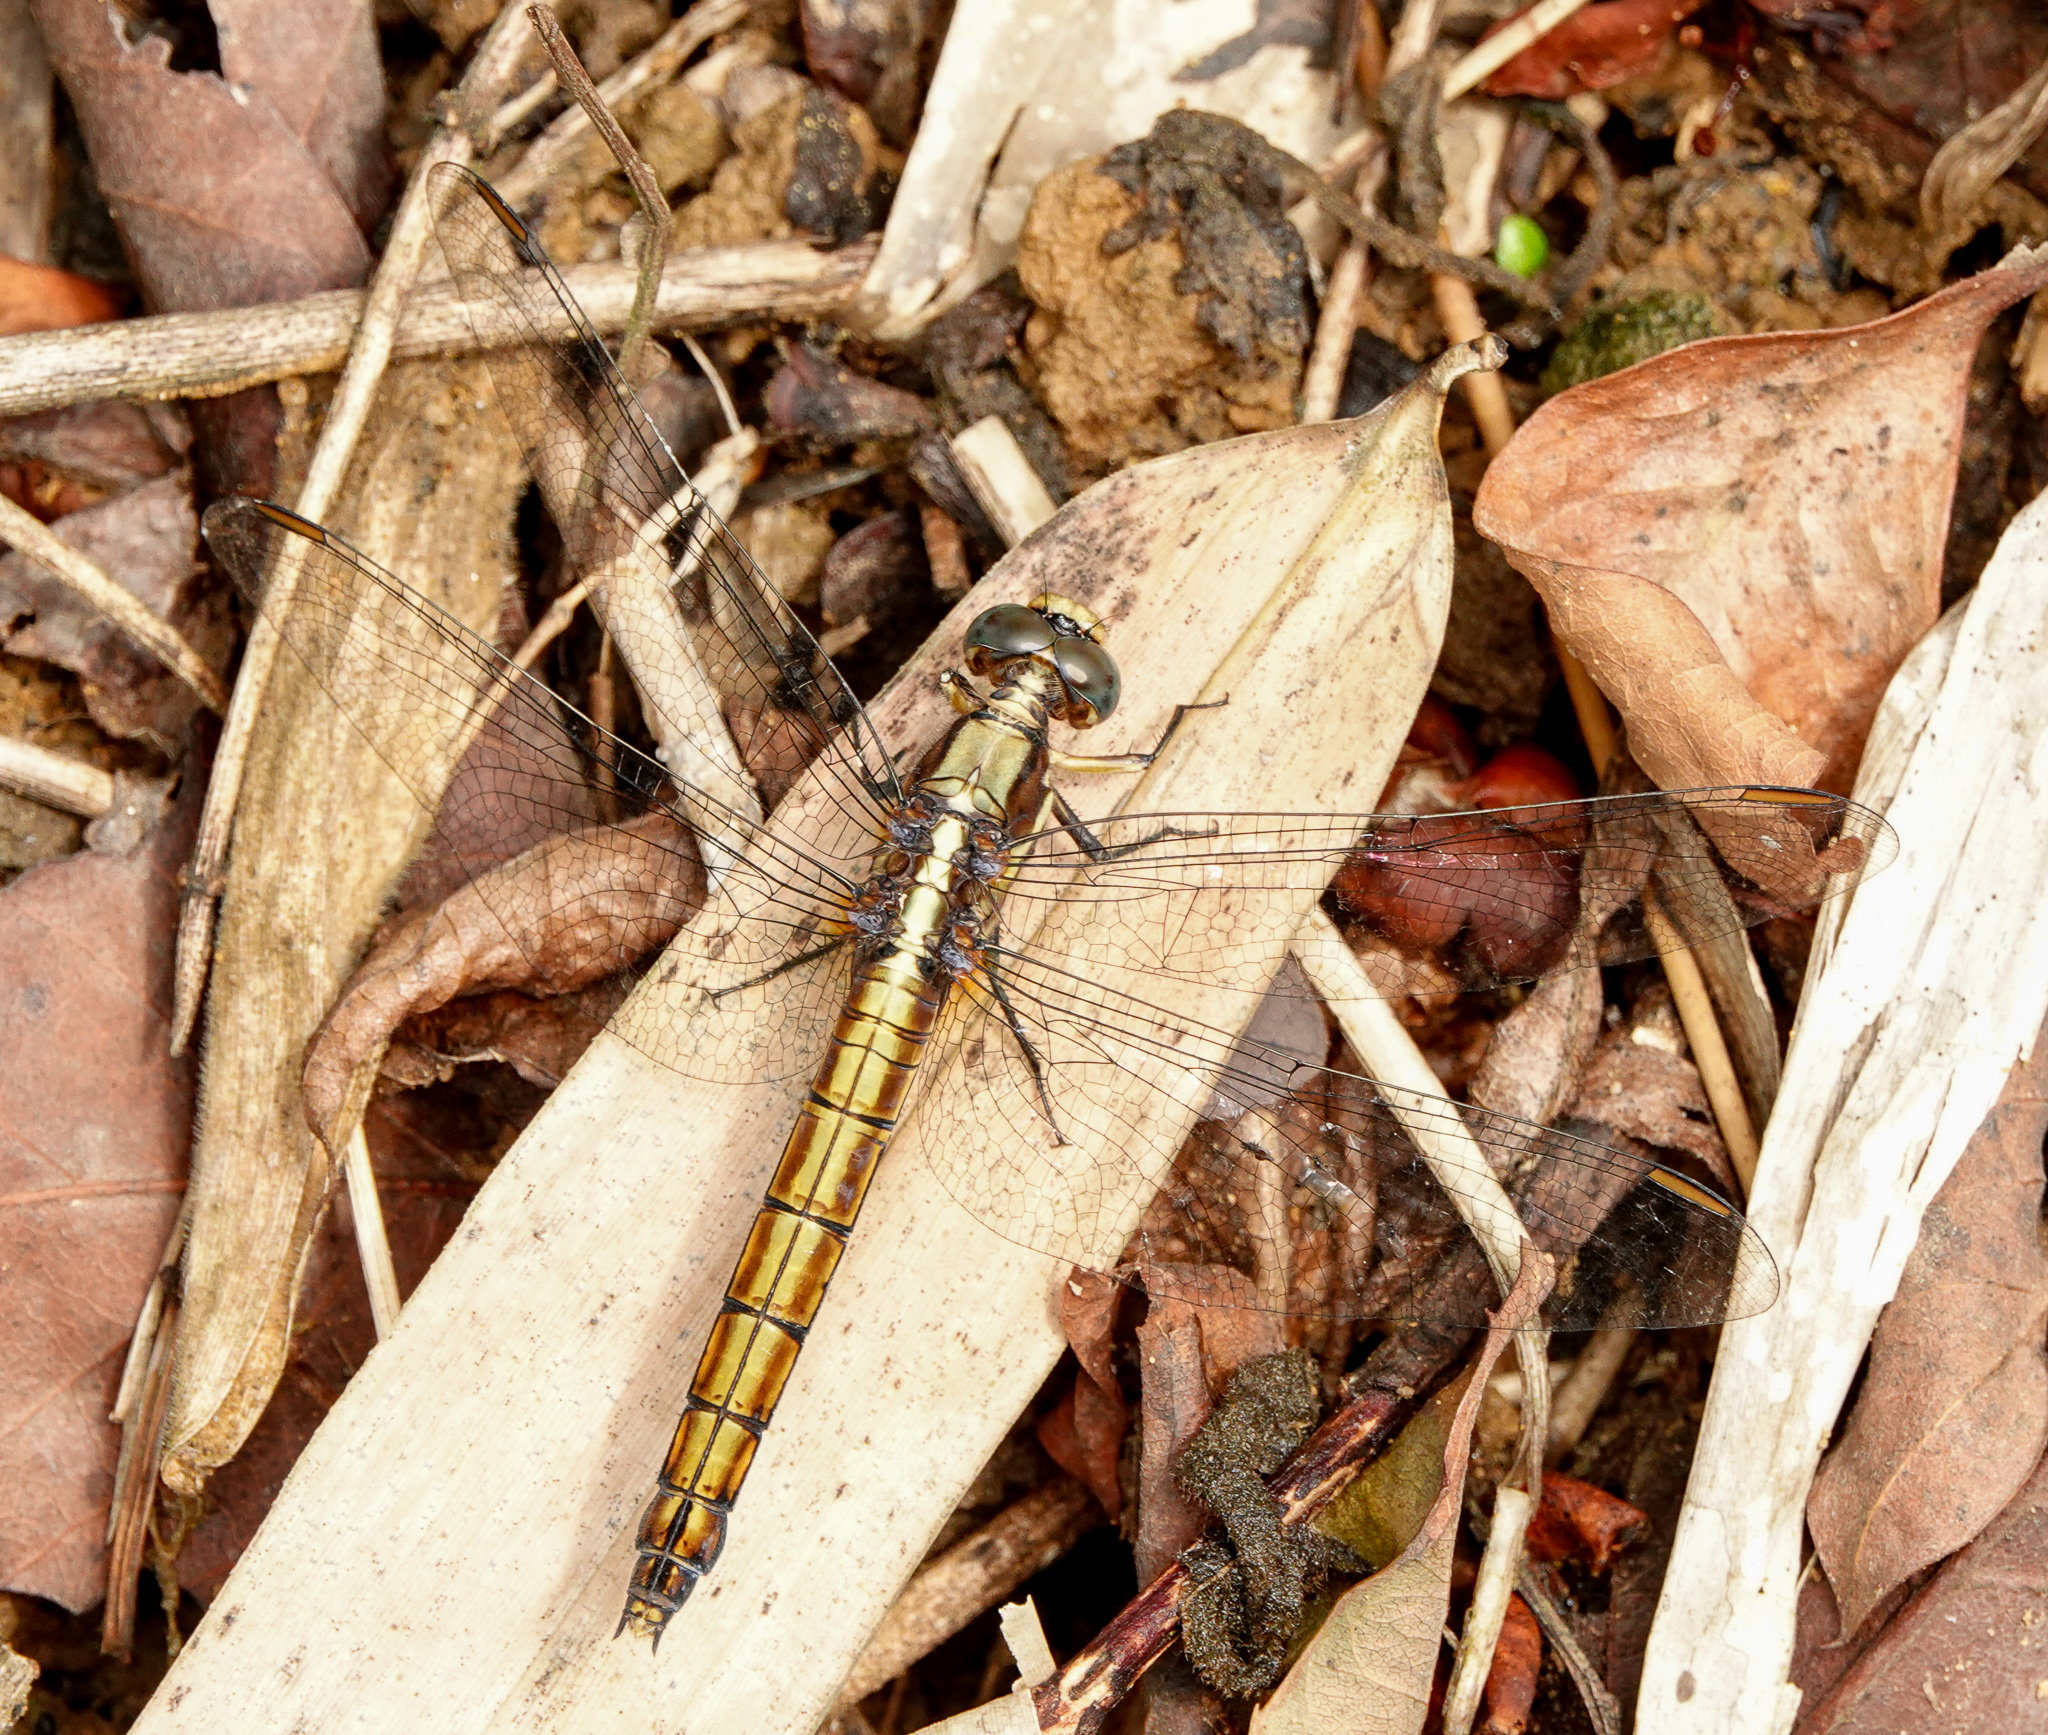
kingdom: Animalia
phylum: Arthropoda
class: Insecta
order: Odonata
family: Libellulidae
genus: Orthetrum
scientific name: Orthetrum glaucum
